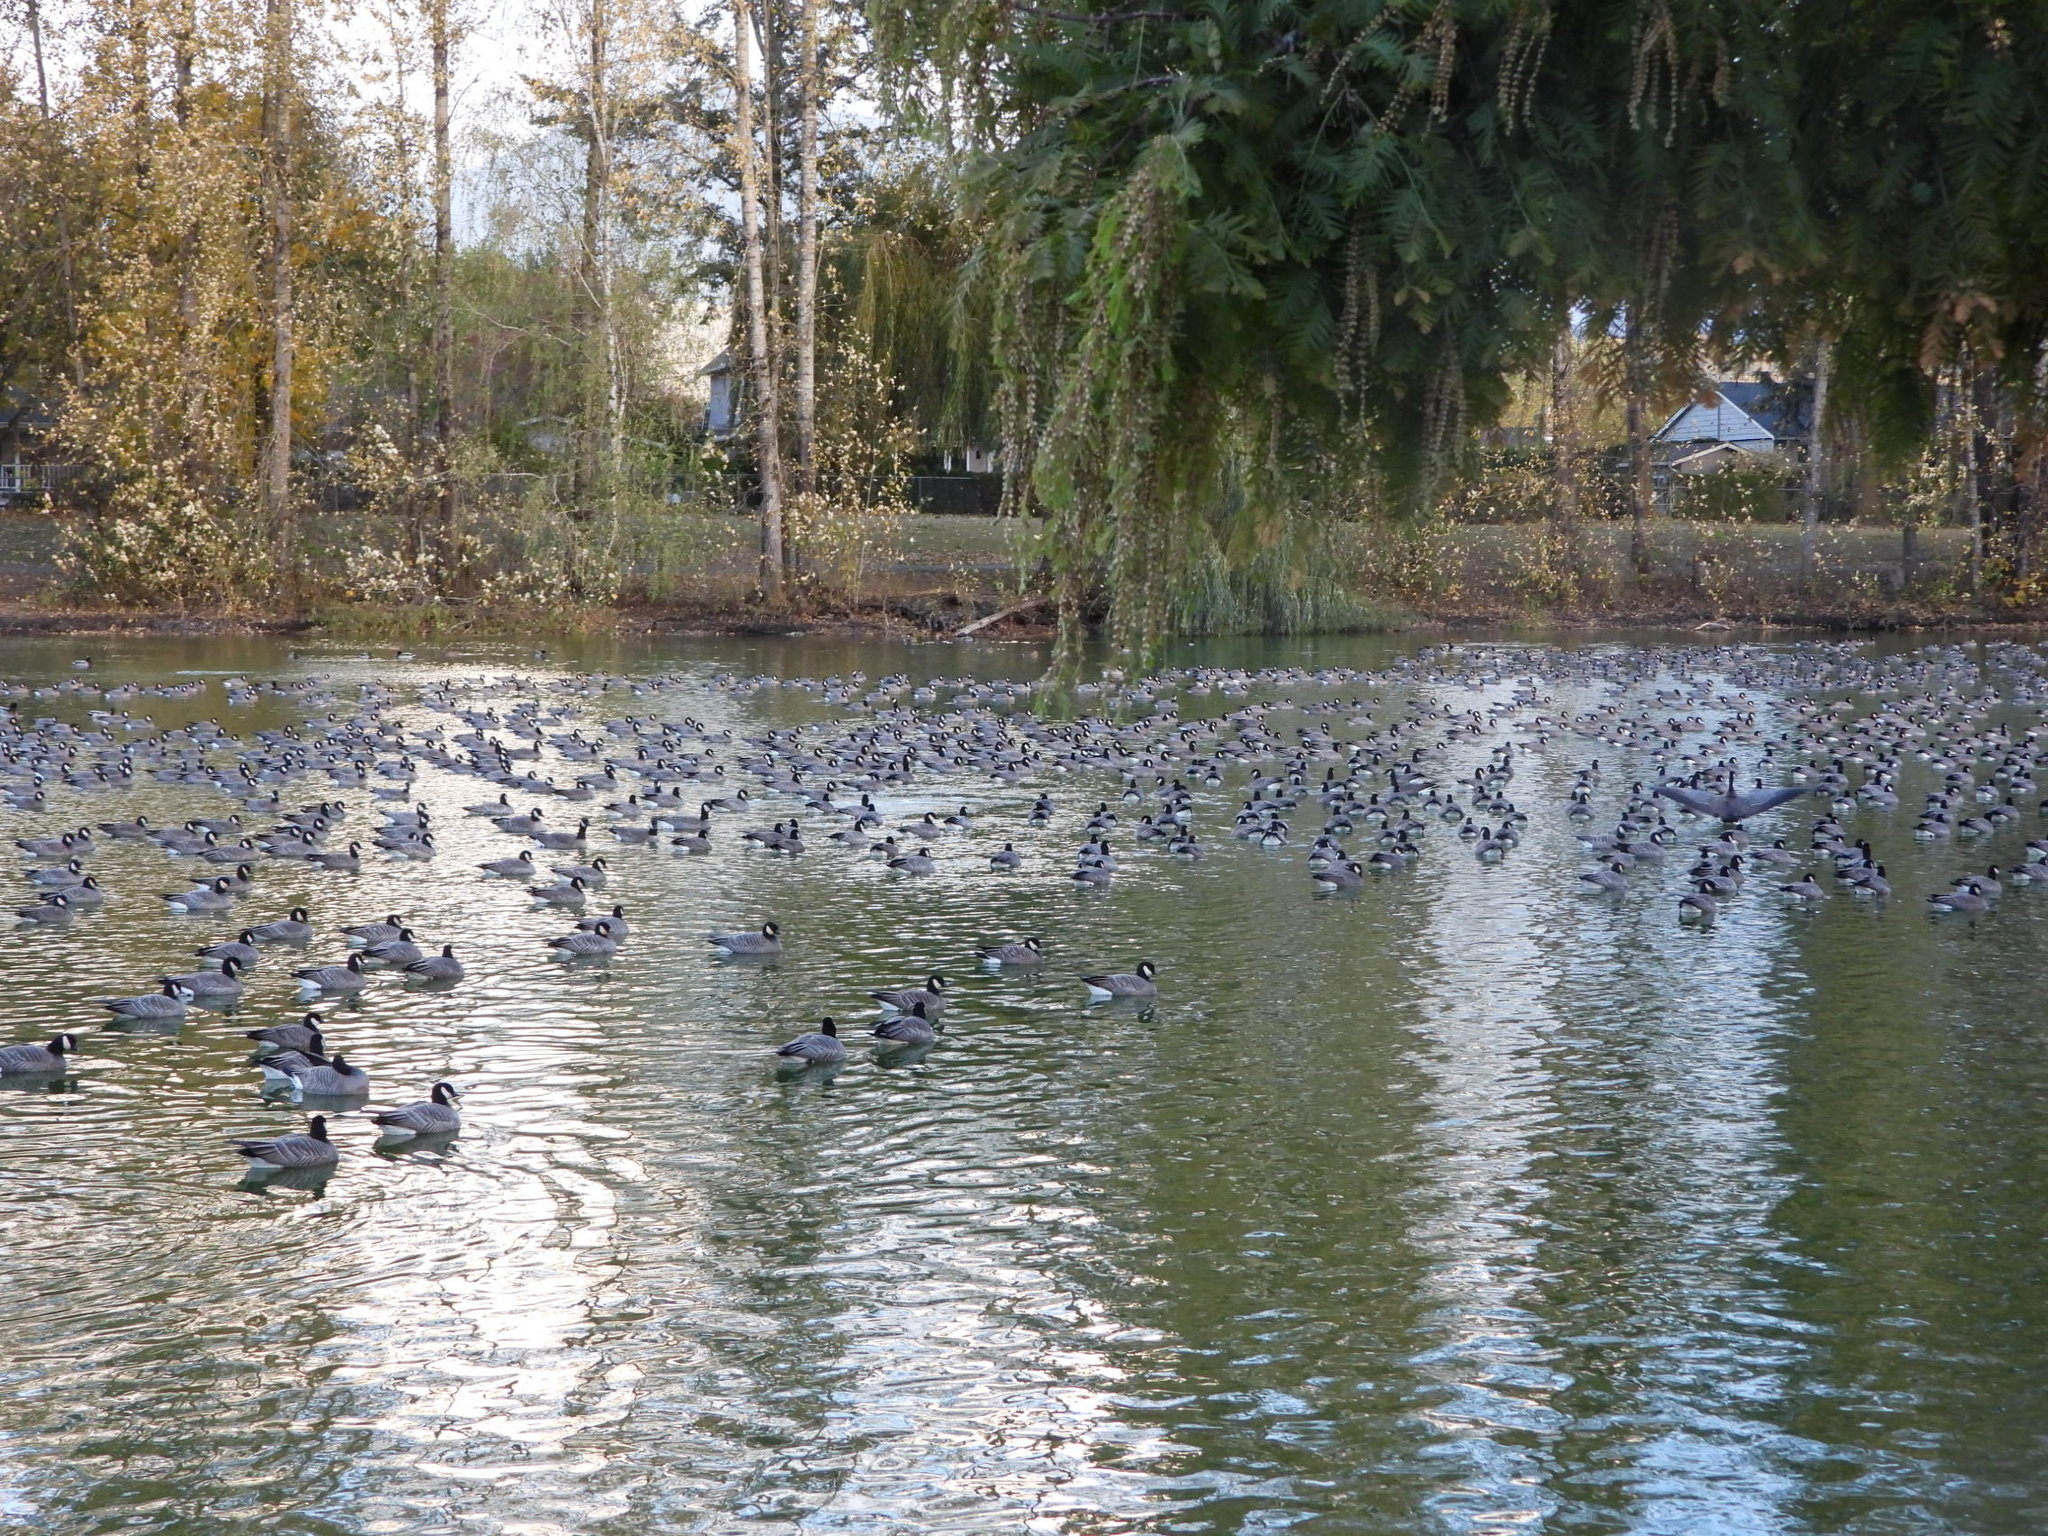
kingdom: Animalia
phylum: Chordata
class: Aves
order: Anseriformes
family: Anatidae
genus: Branta
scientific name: Branta hutchinsii
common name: Cackling goose
